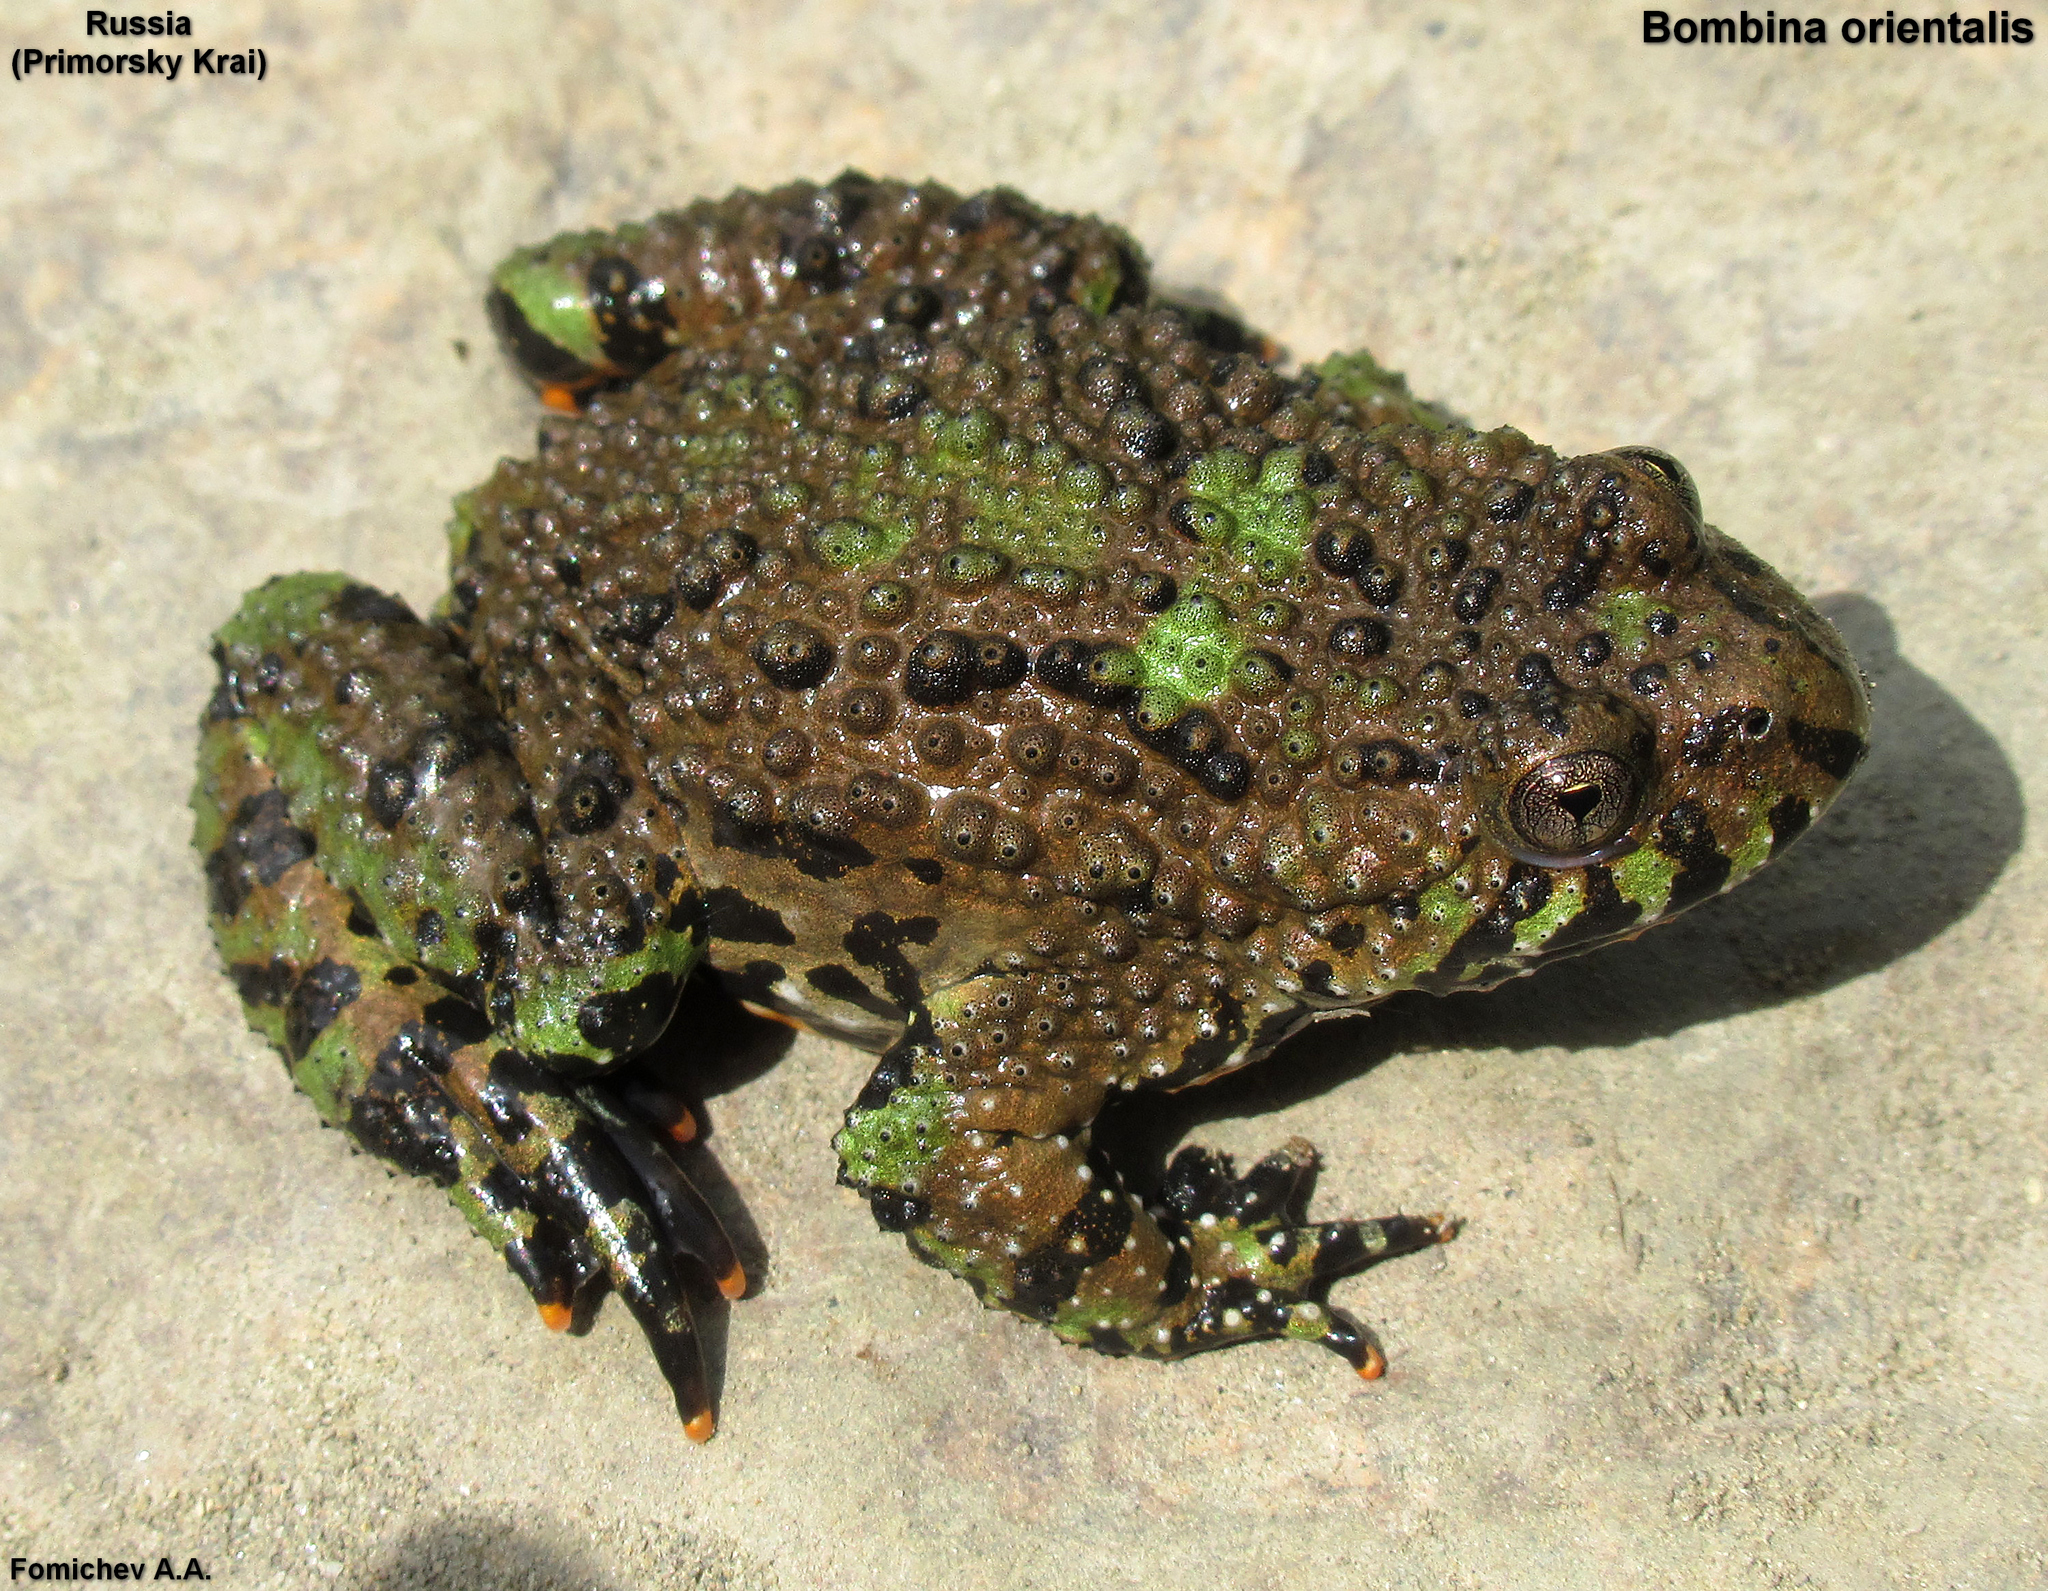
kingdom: Animalia
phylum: Chordata
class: Amphibia
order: Anura
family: Bombinatoridae
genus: Bombina
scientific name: Bombina orientalis
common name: Oriental firebelly toad
